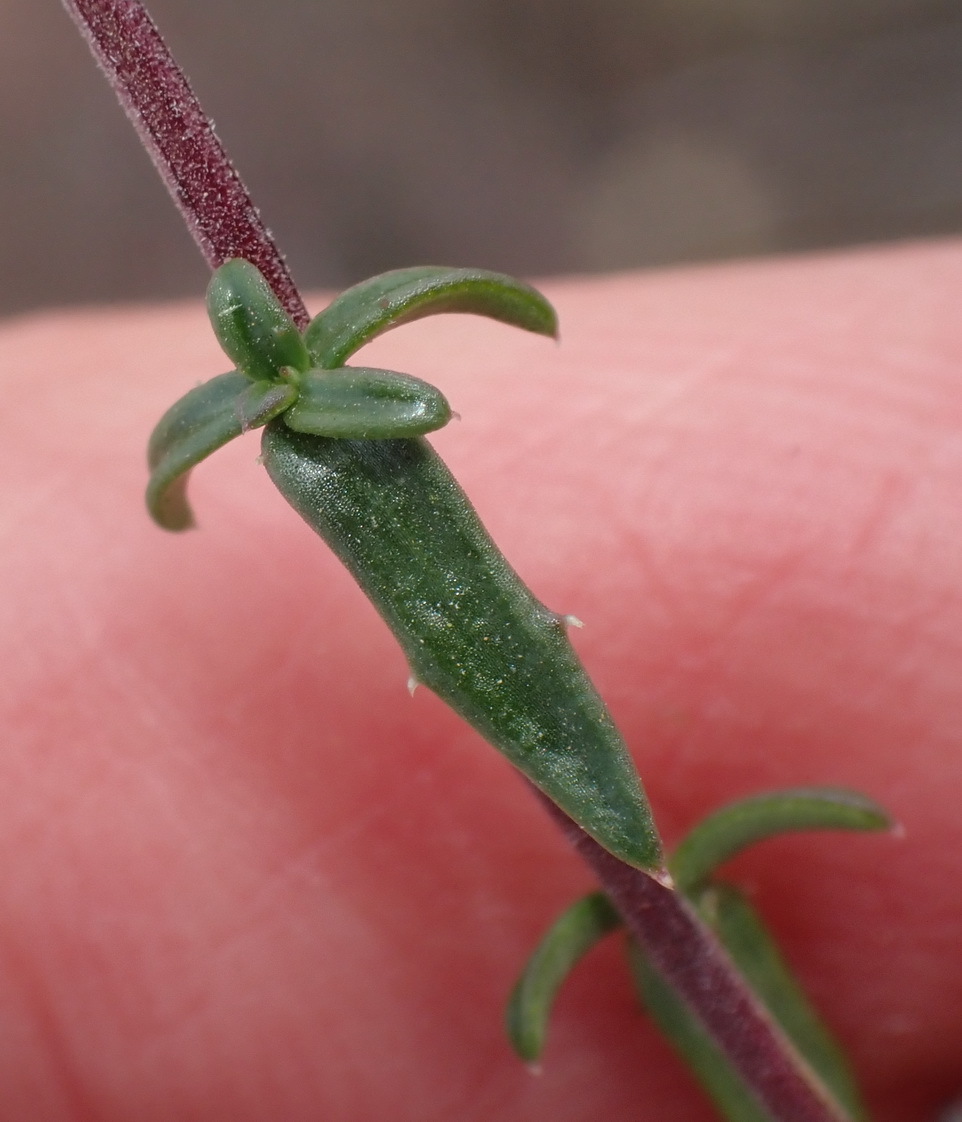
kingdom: Plantae
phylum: Tracheophyta
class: Magnoliopsida
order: Asterales
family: Campanulaceae
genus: Wahlenbergia
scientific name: Wahlenbergia nodosa
